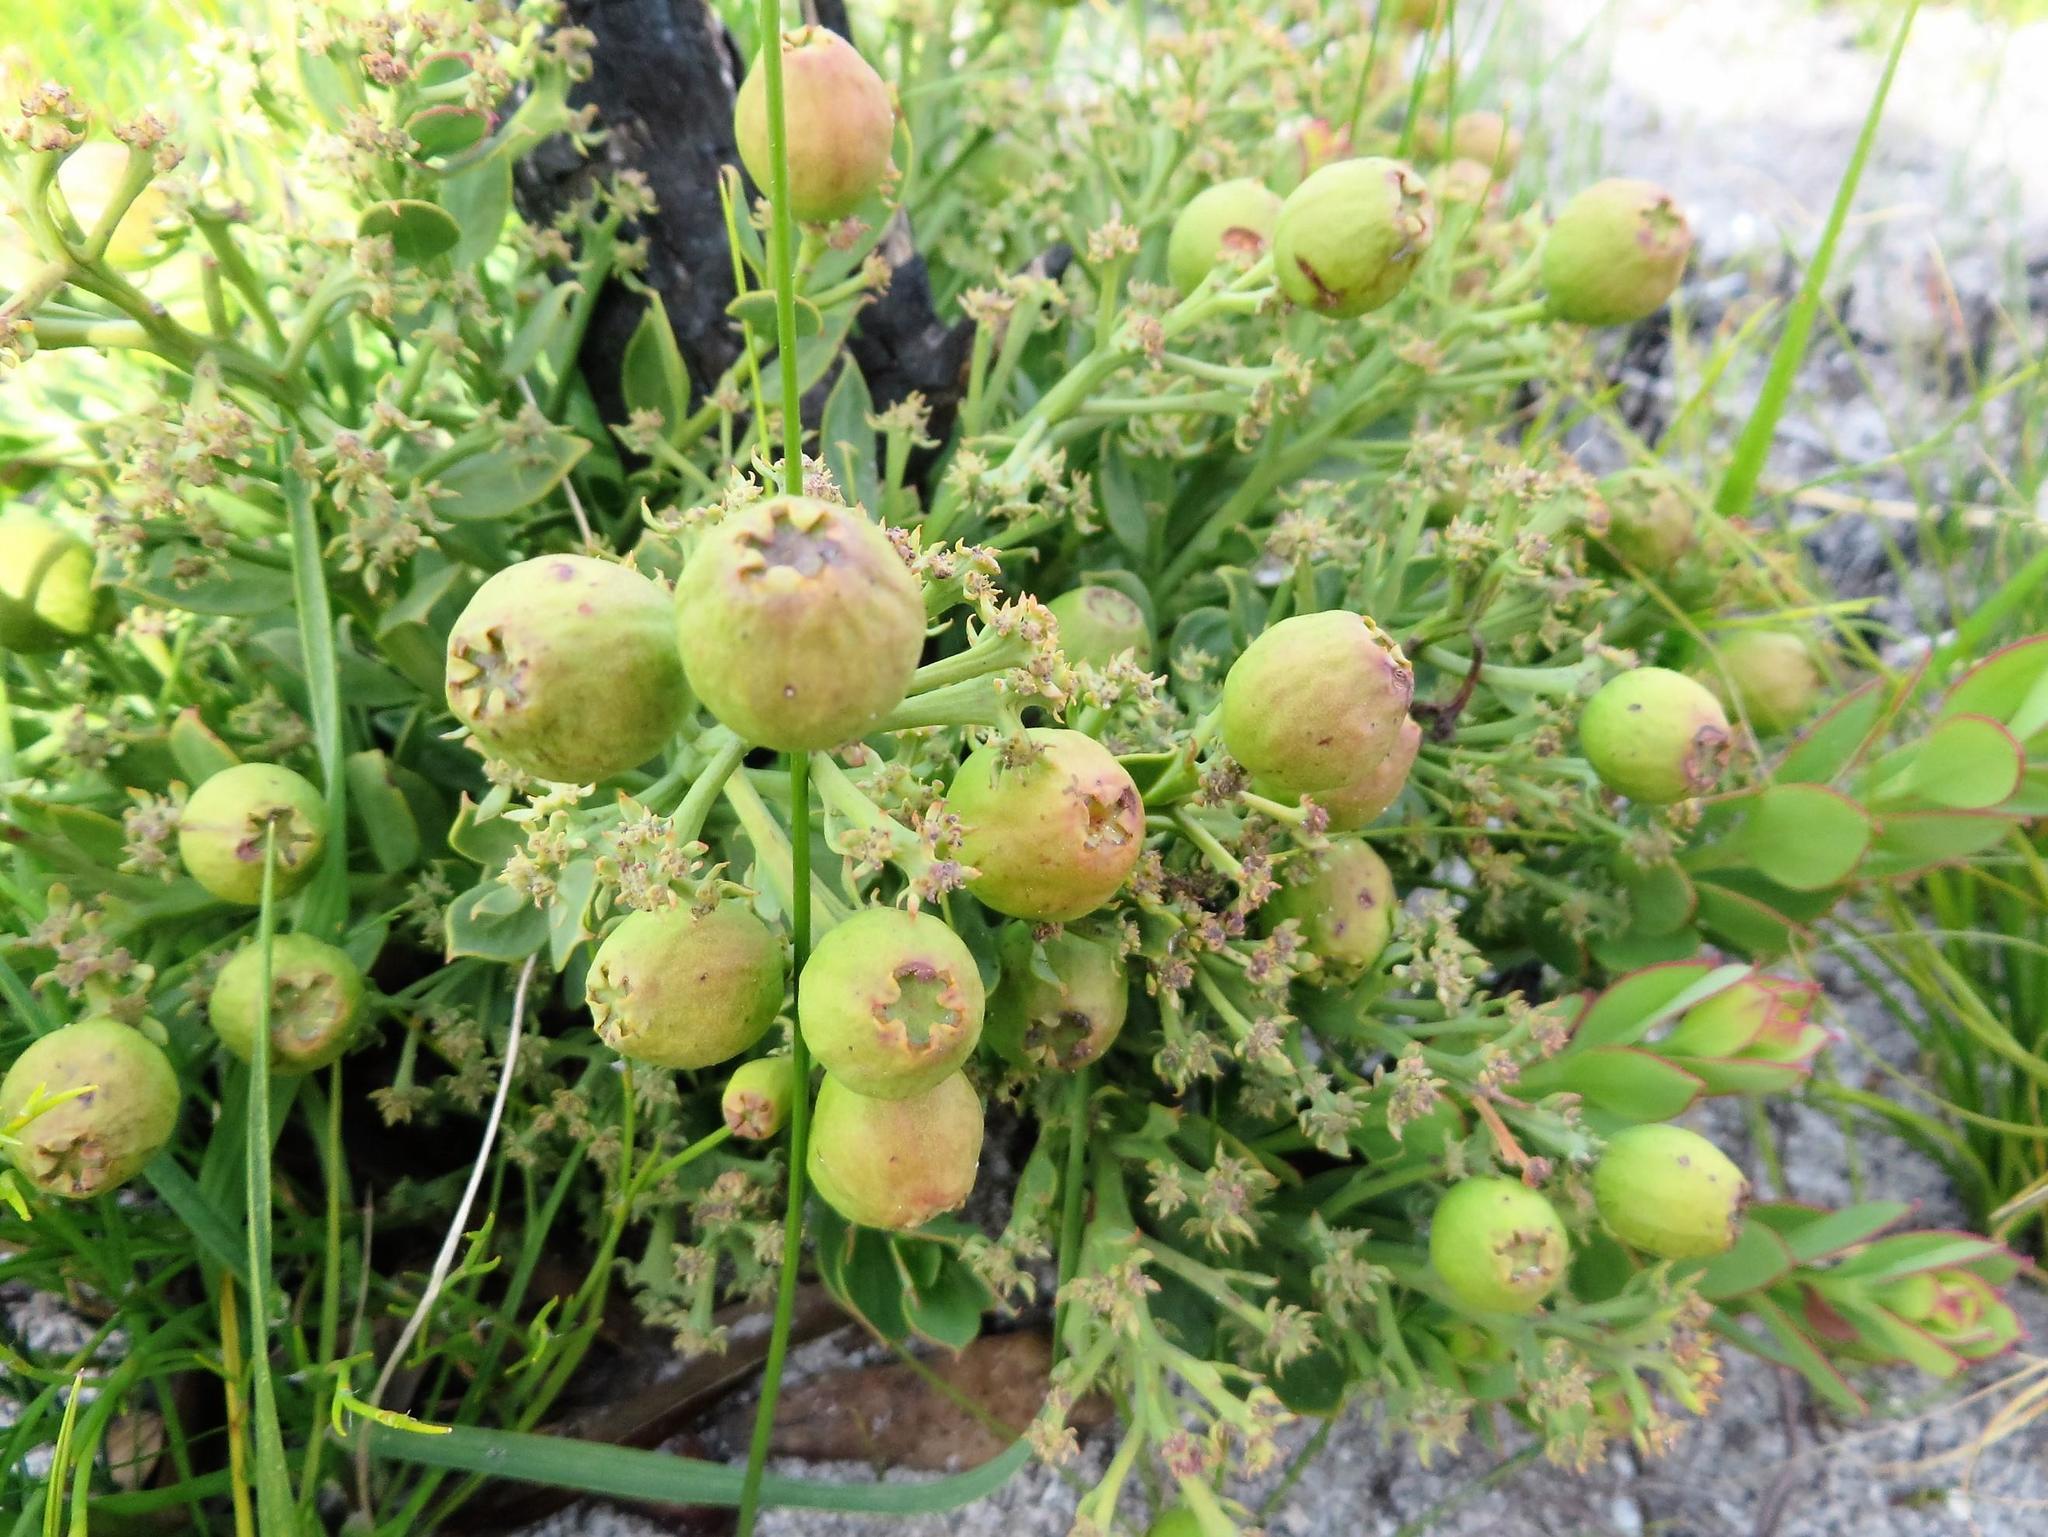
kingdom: Plantae
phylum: Tracheophyta
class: Magnoliopsida
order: Santalales
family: Santalaceae
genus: Osyris
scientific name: Osyris speciosa
